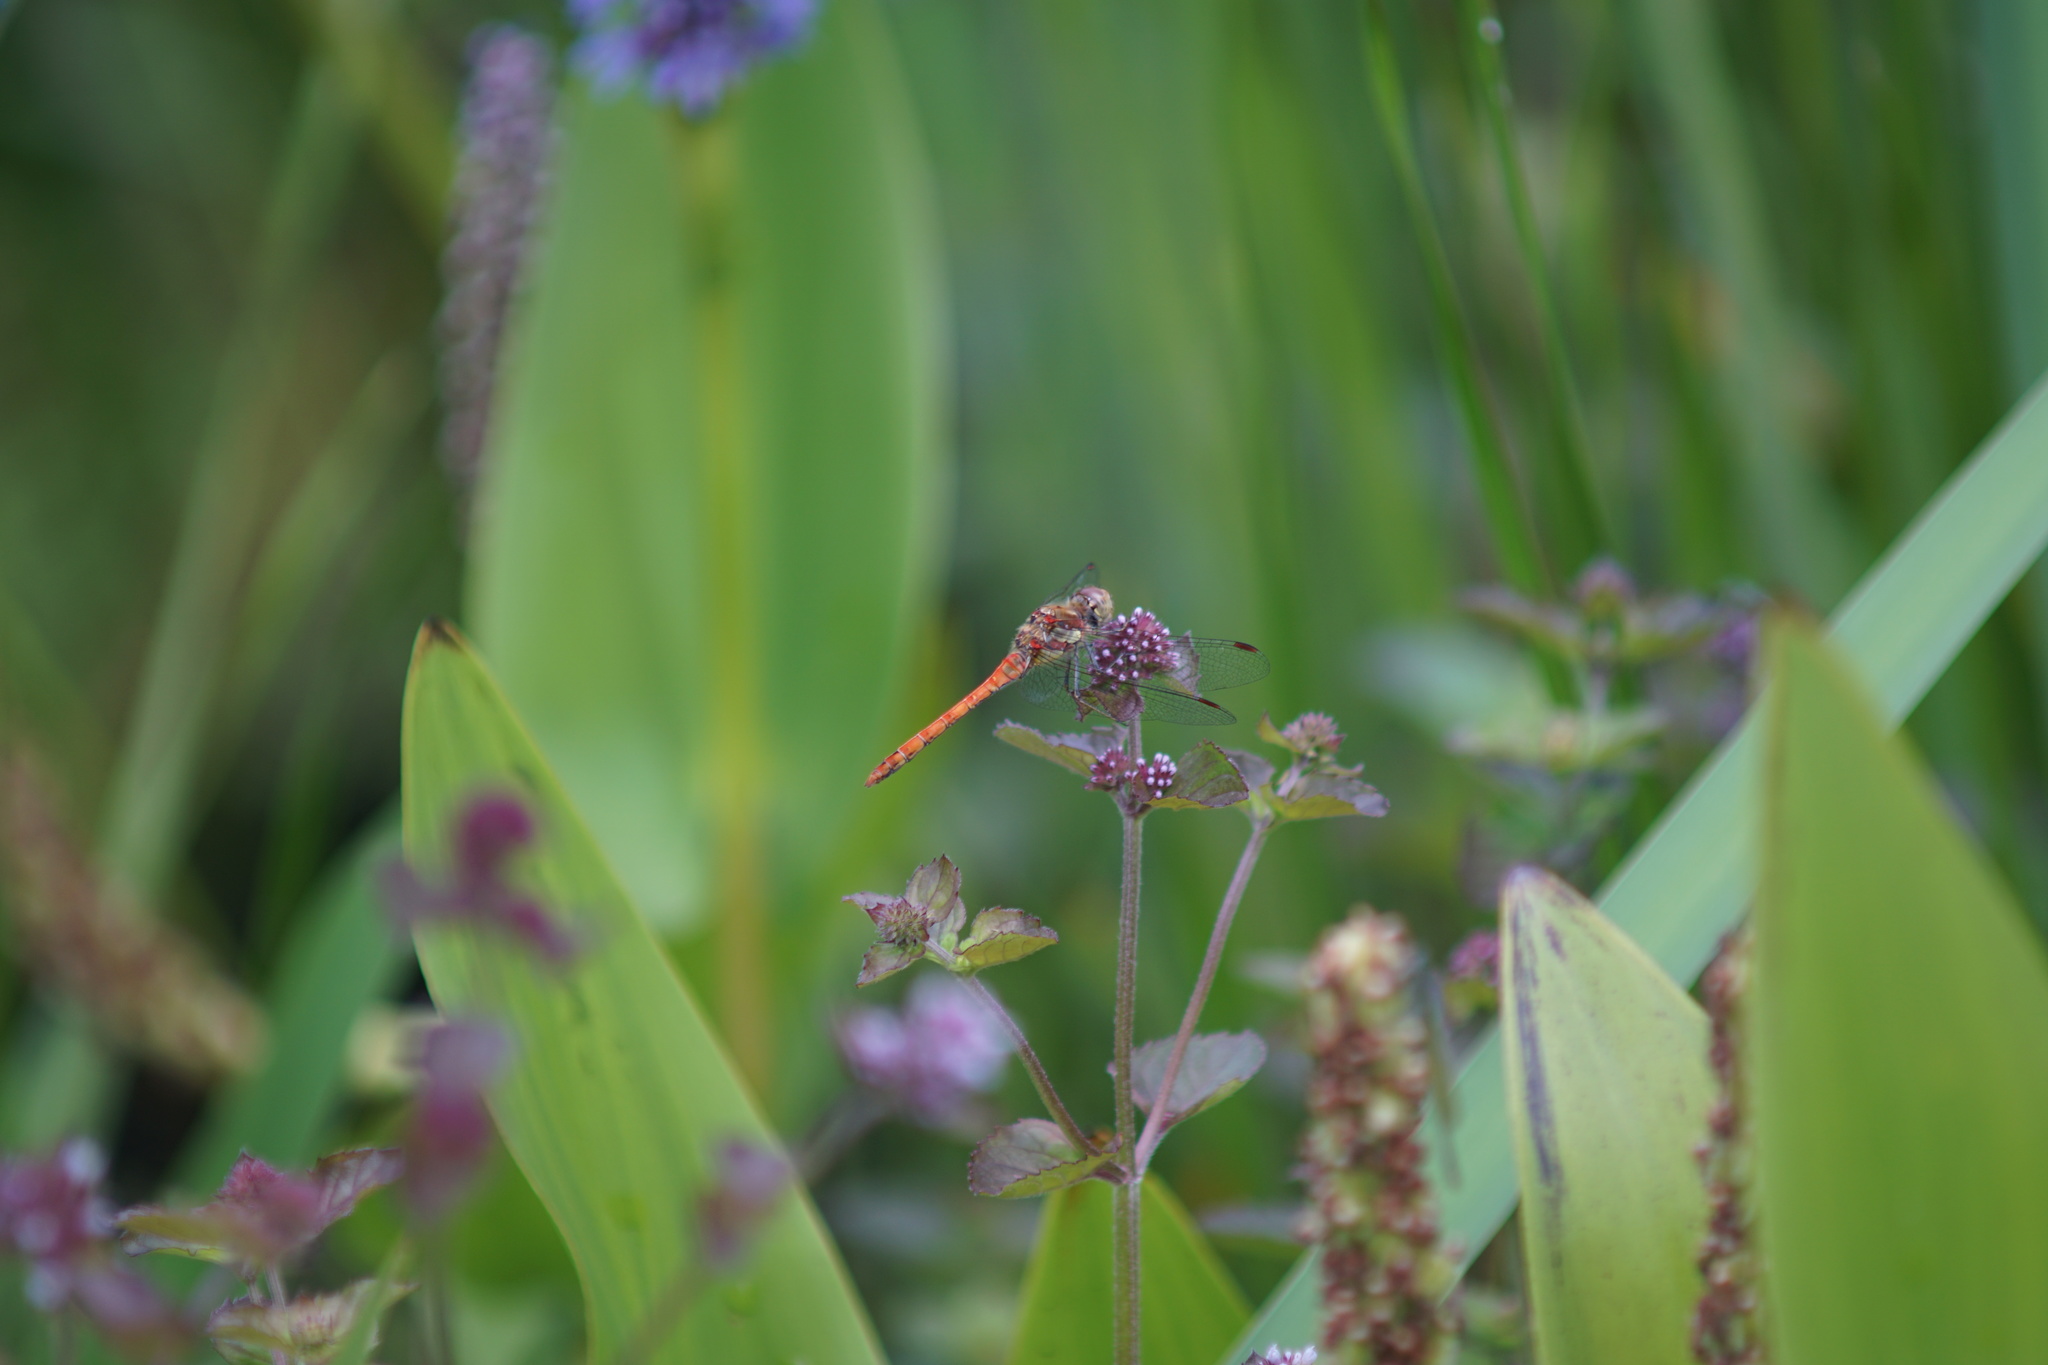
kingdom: Animalia
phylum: Arthropoda
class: Insecta
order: Odonata
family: Libellulidae
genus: Sympetrum
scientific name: Sympetrum striolatum
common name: Common darter
